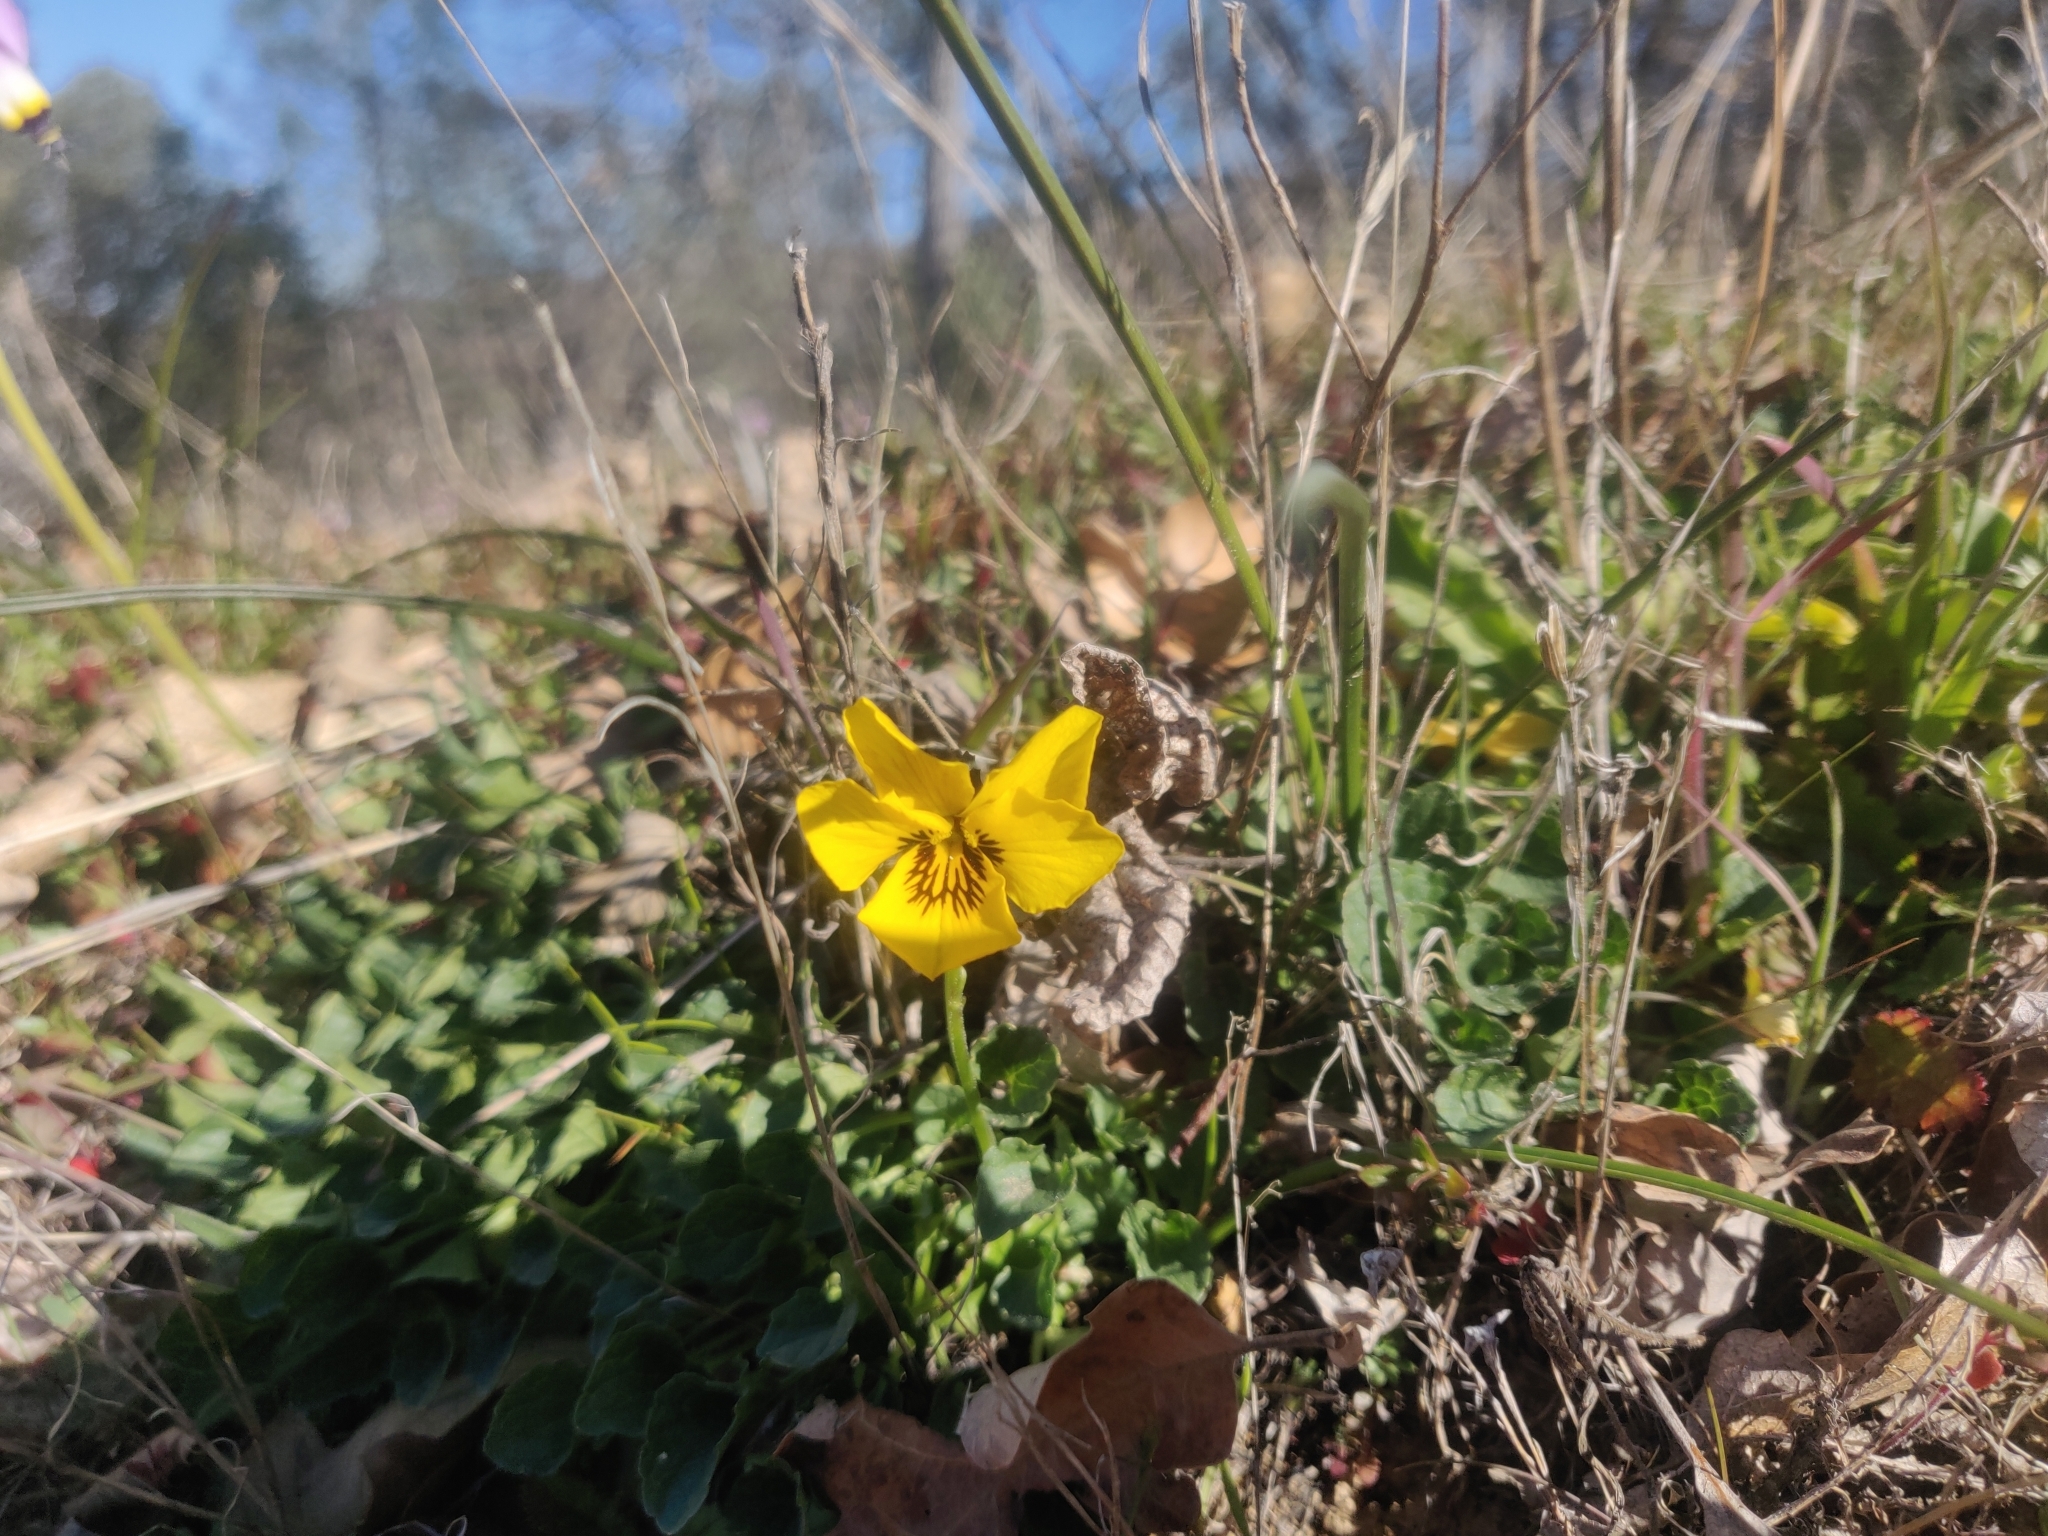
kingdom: Plantae
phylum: Tracheophyta
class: Magnoliopsida
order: Malpighiales
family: Violaceae
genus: Viola
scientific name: Viola pedunculata
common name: California golden violet
